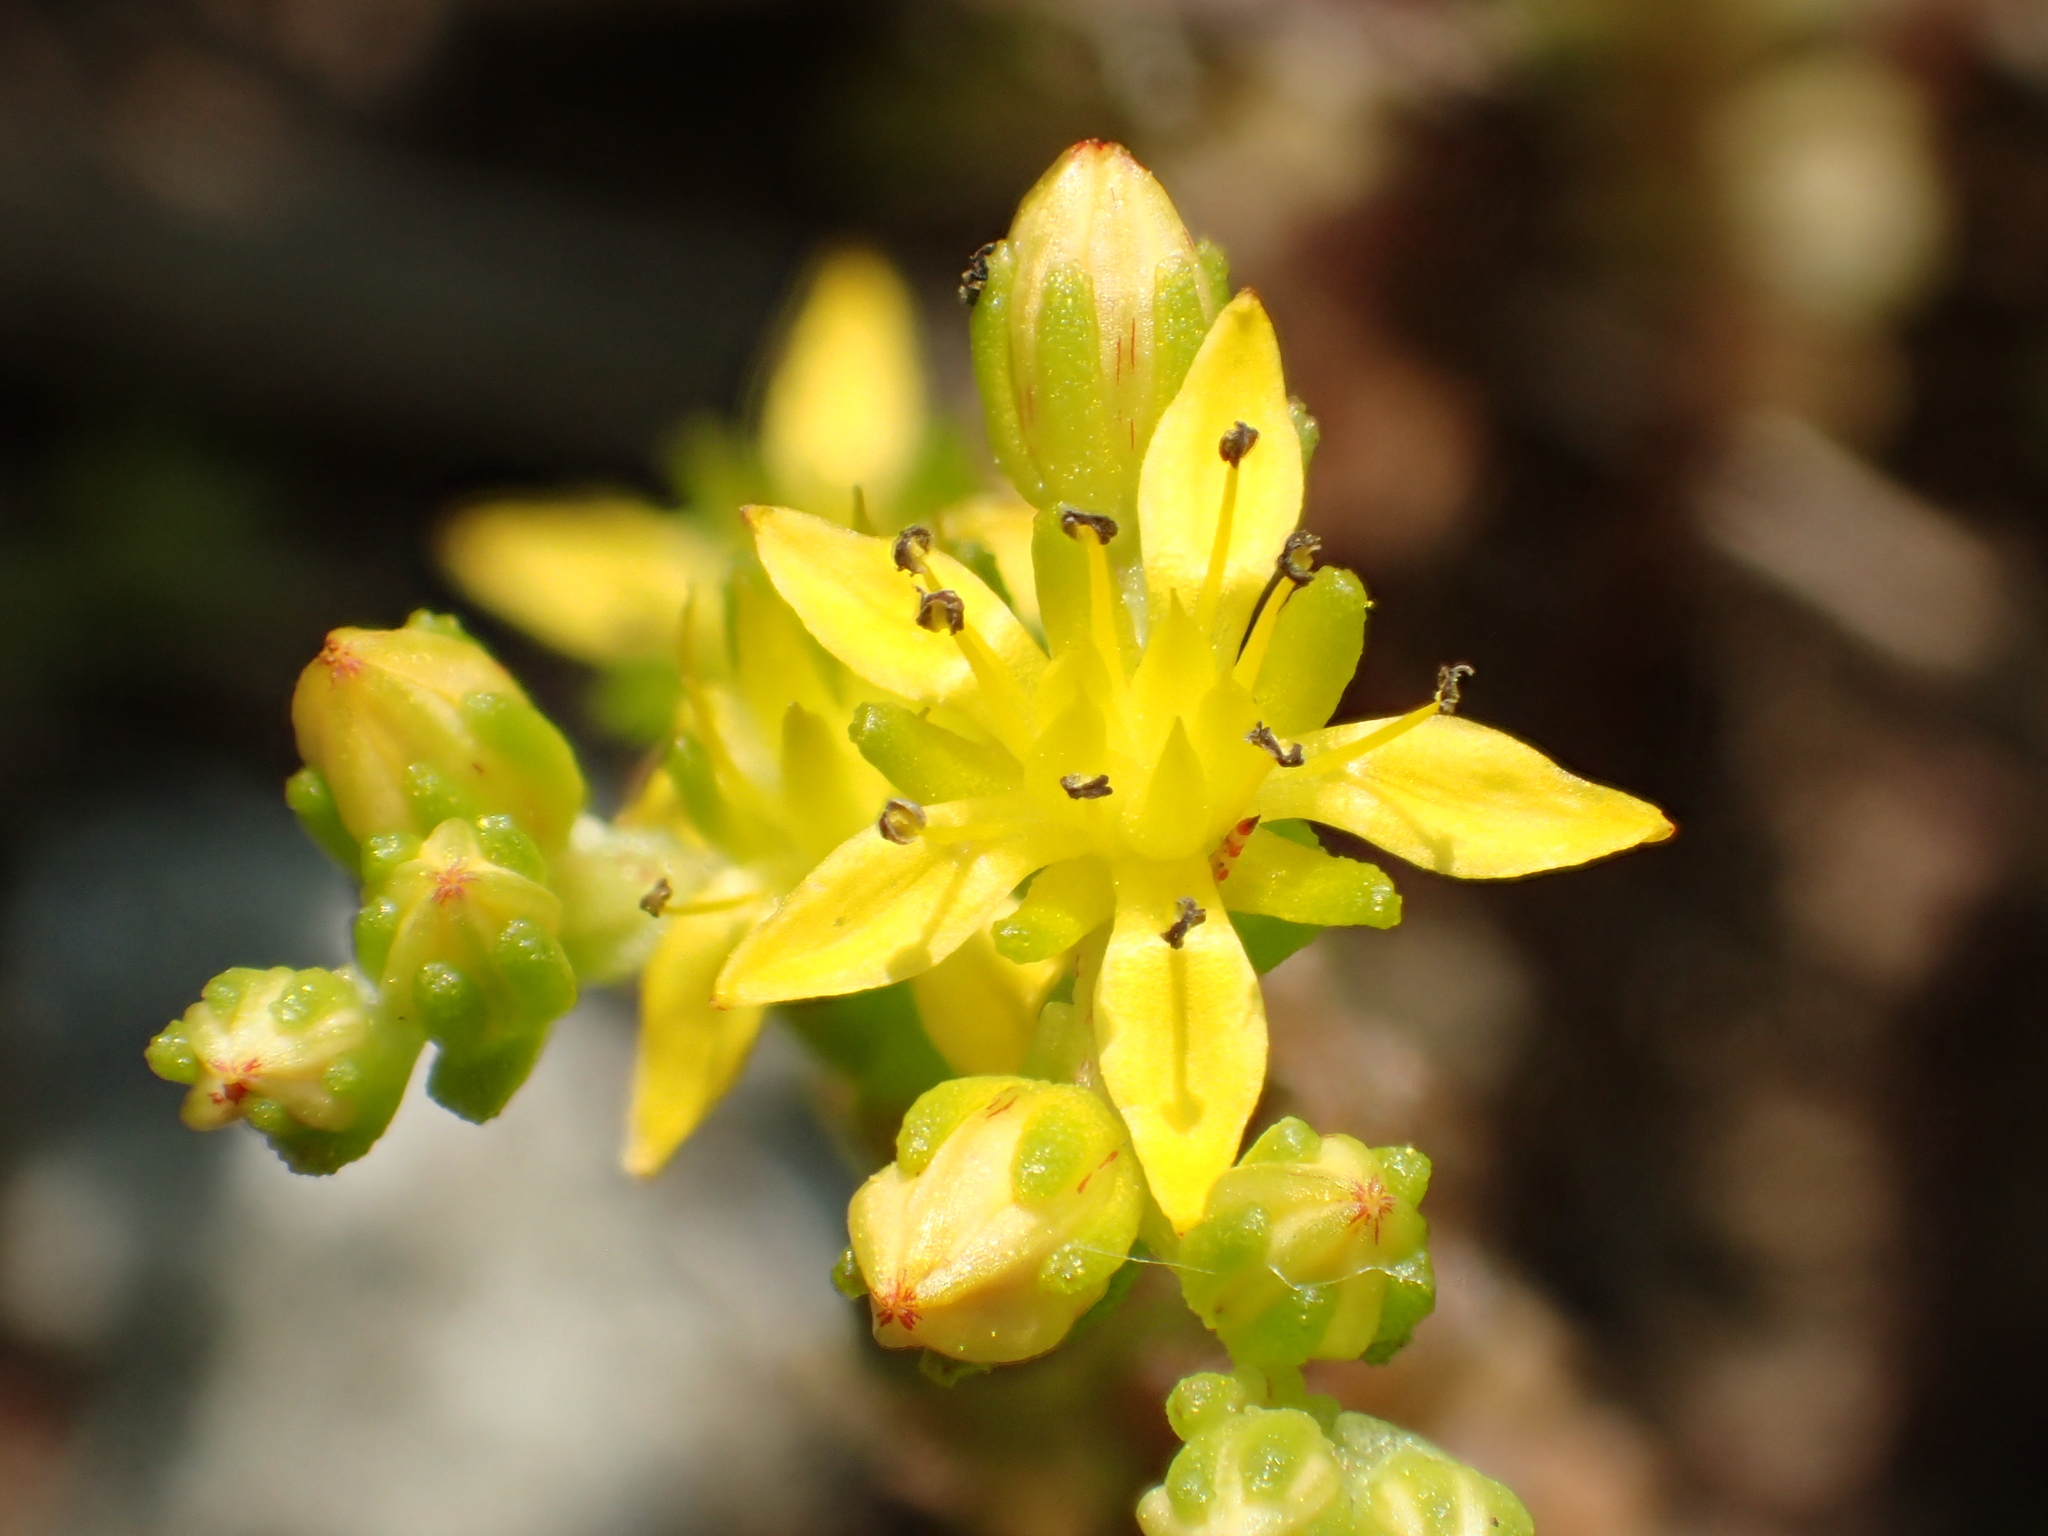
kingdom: Plantae
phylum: Tracheophyta
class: Magnoliopsida
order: Saxifragales
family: Crassulaceae
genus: Sedum
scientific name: Sedum japonicum
